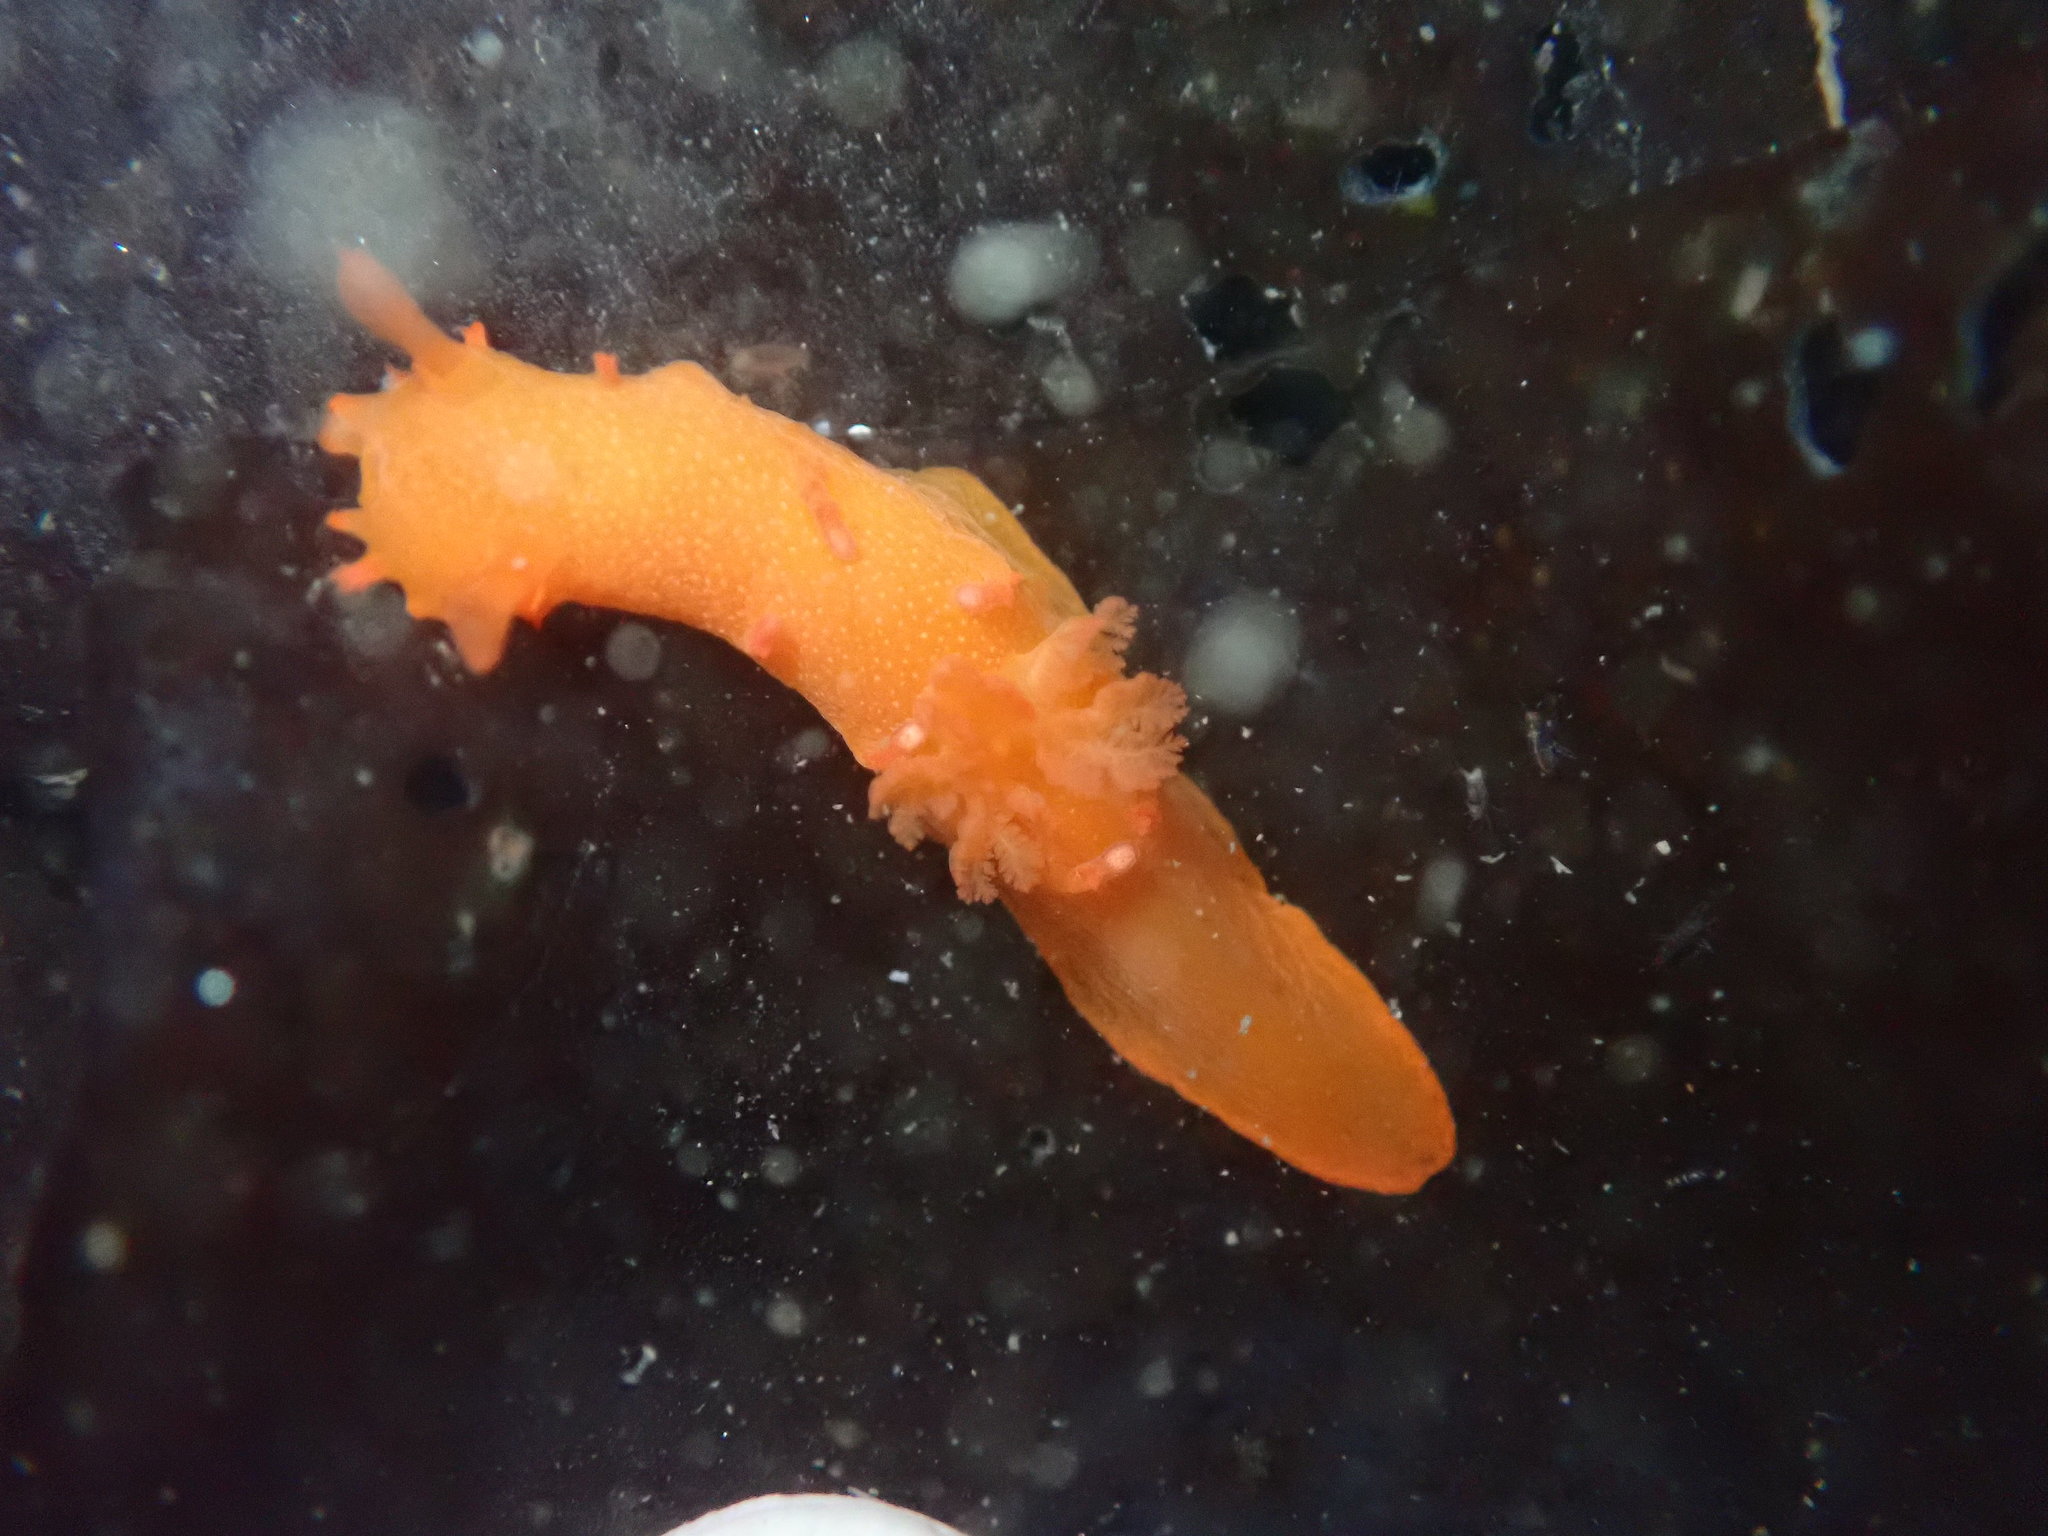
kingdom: Animalia
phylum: Mollusca
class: Gastropoda
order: Nudibranchia
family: Polyceridae
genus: Triopha
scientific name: Triopha maculata
